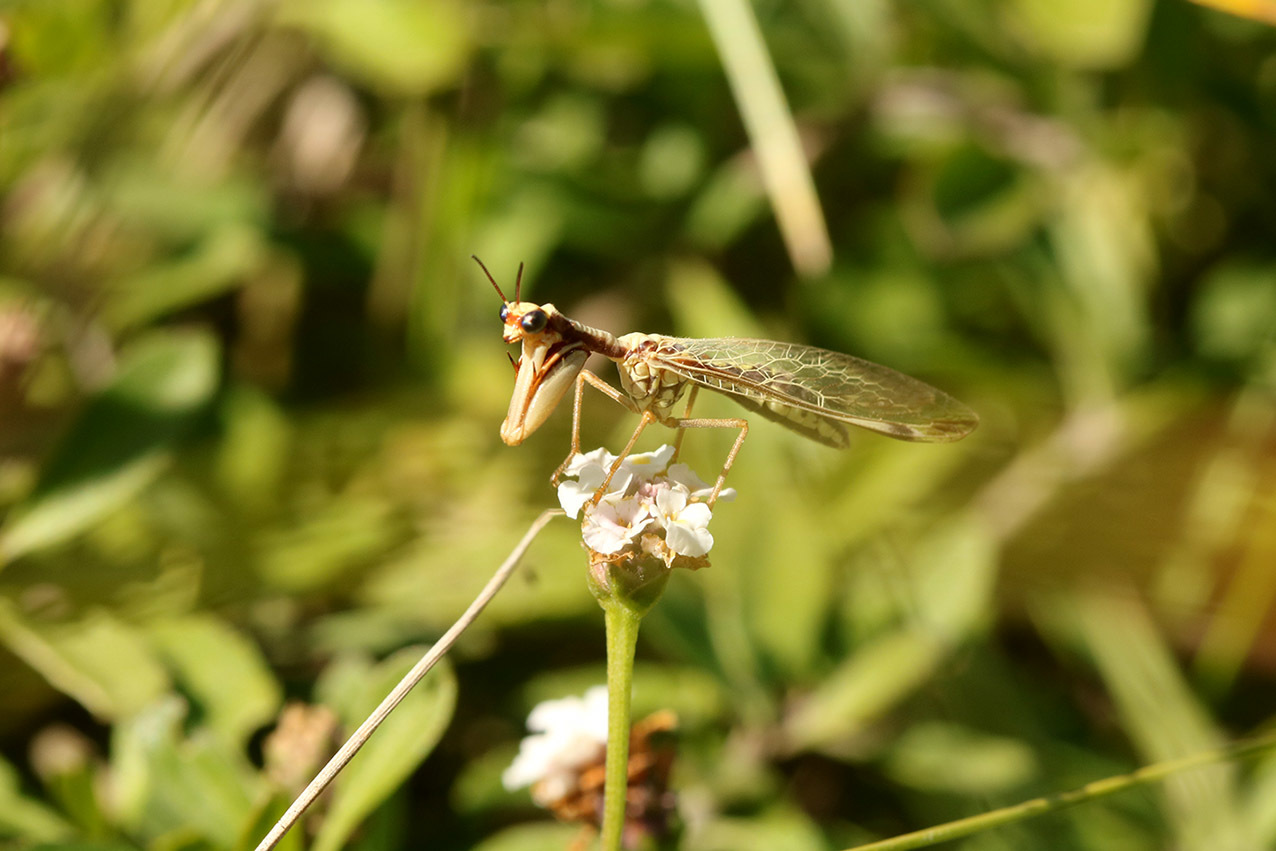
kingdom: Animalia
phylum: Arthropoda
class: Insecta
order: Neuroptera
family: Mantispidae
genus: Paramantispa
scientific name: Paramantispa prolixa
